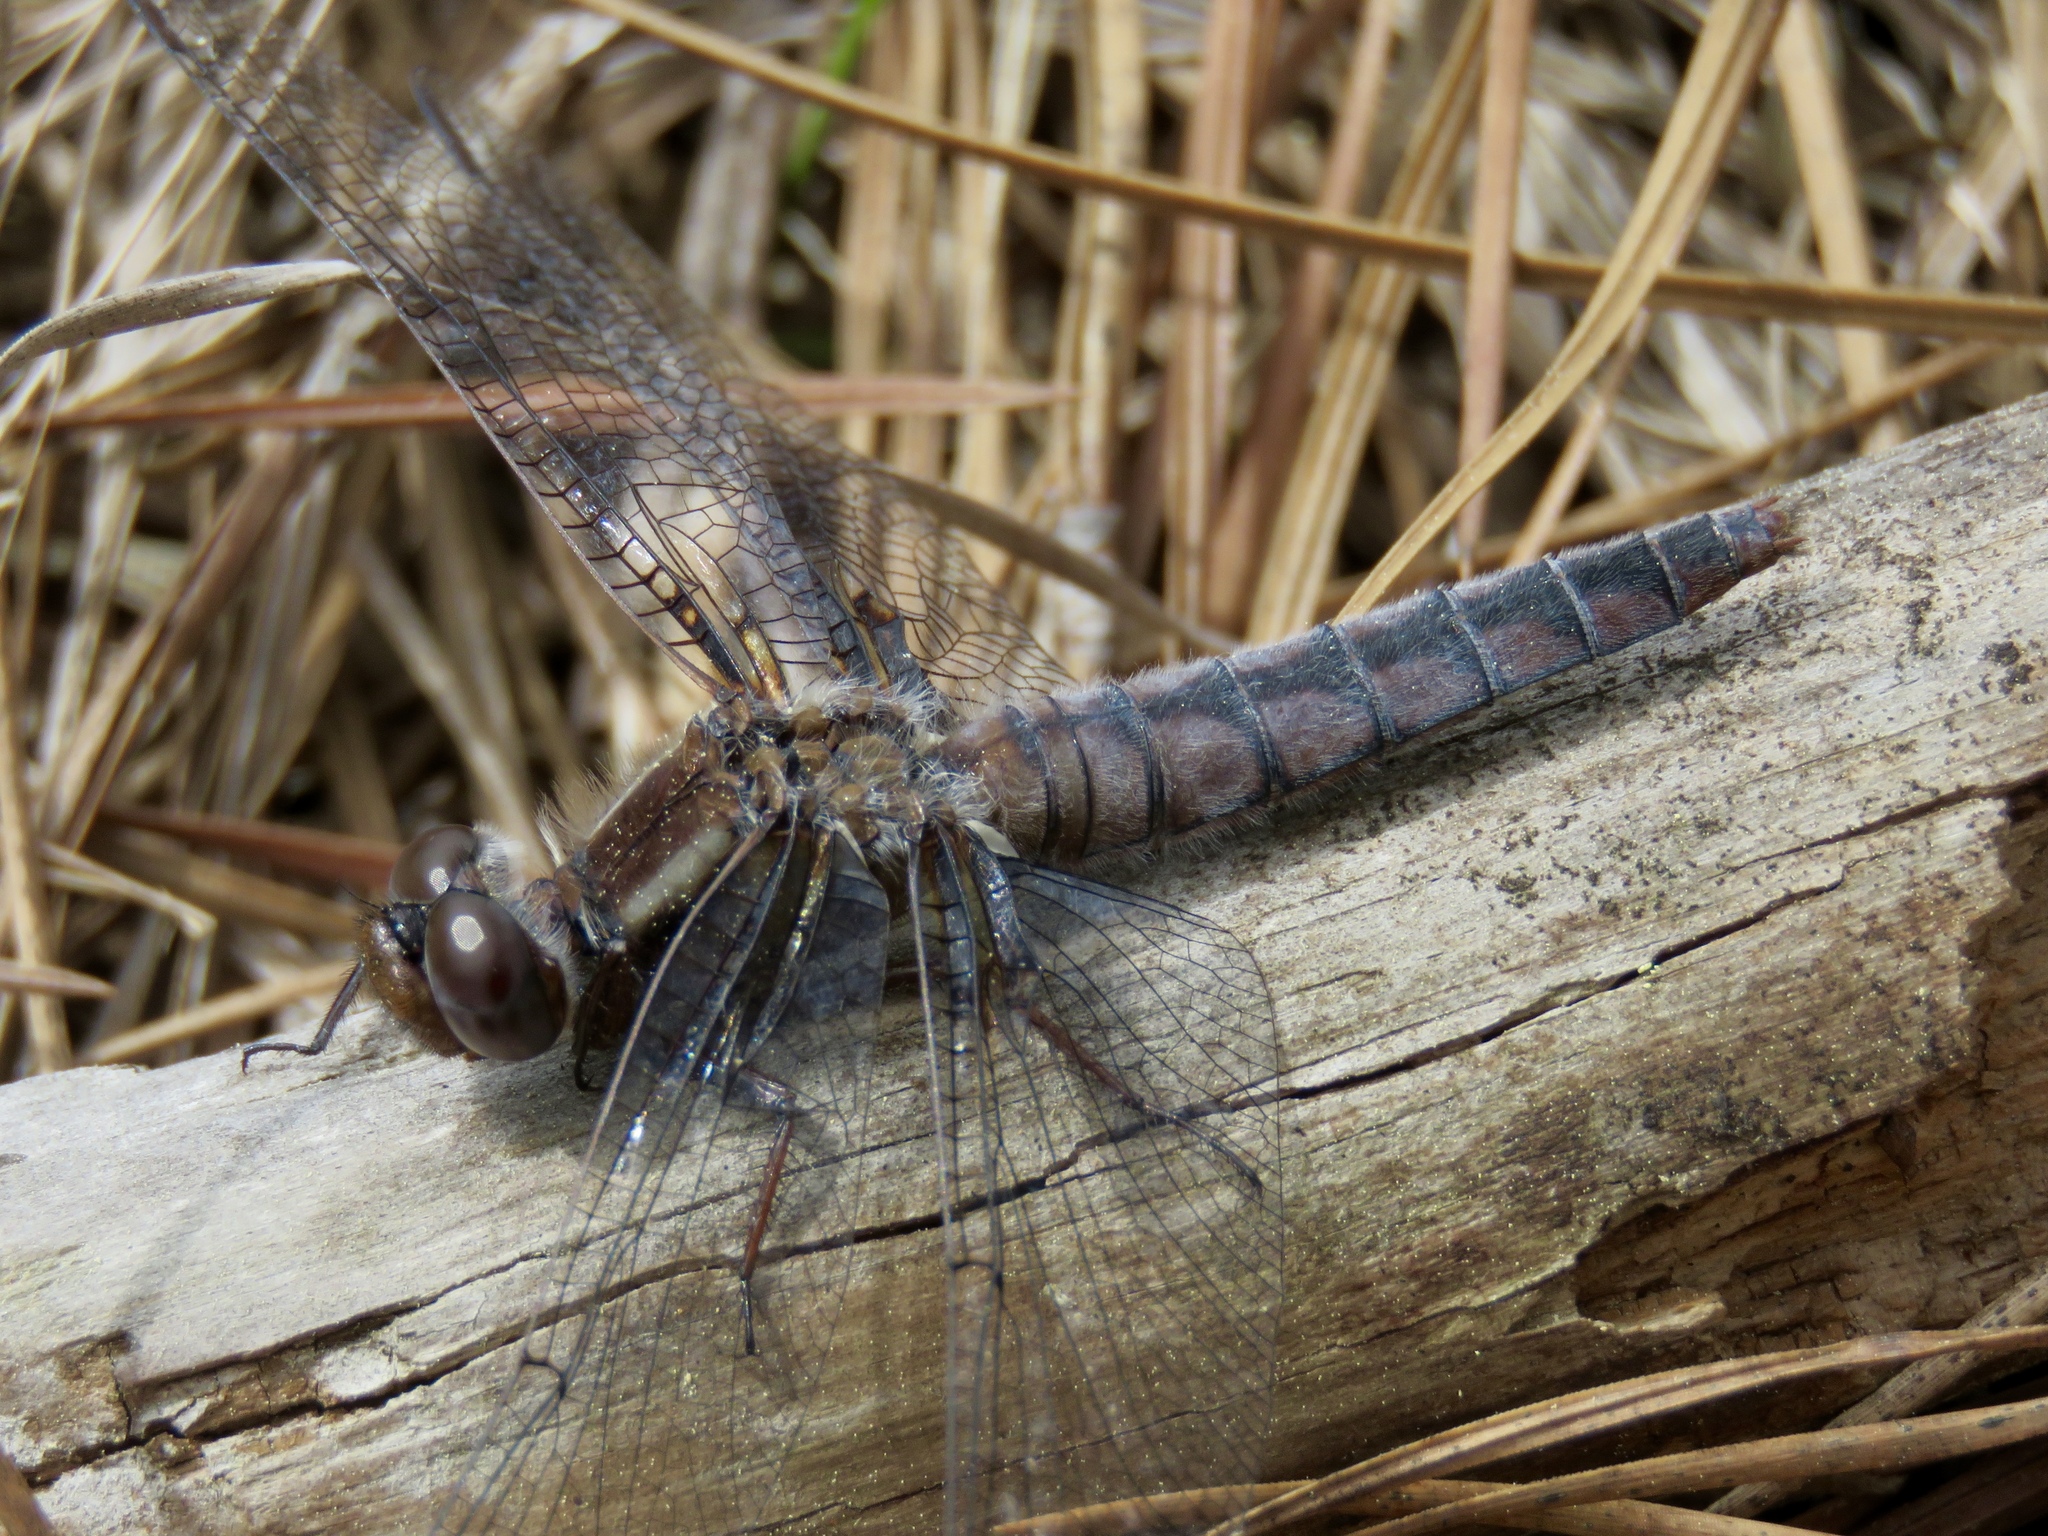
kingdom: Animalia
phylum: Arthropoda
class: Insecta
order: Odonata
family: Libellulidae
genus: Ladona
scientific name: Ladona deplanata
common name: Blue corporal
